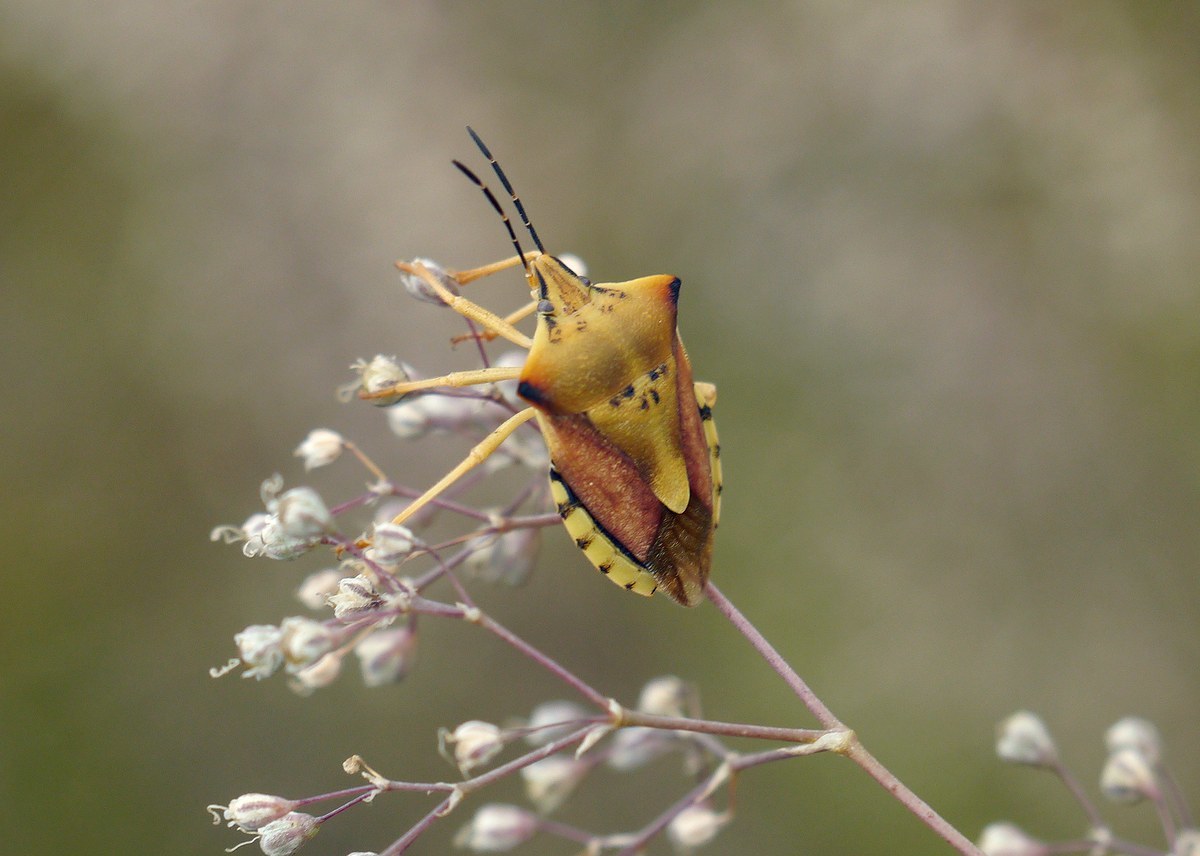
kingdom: Animalia
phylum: Arthropoda
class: Insecta
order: Hemiptera
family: Pentatomidae
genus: Carpocoris
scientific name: Carpocoris fuscispinus
